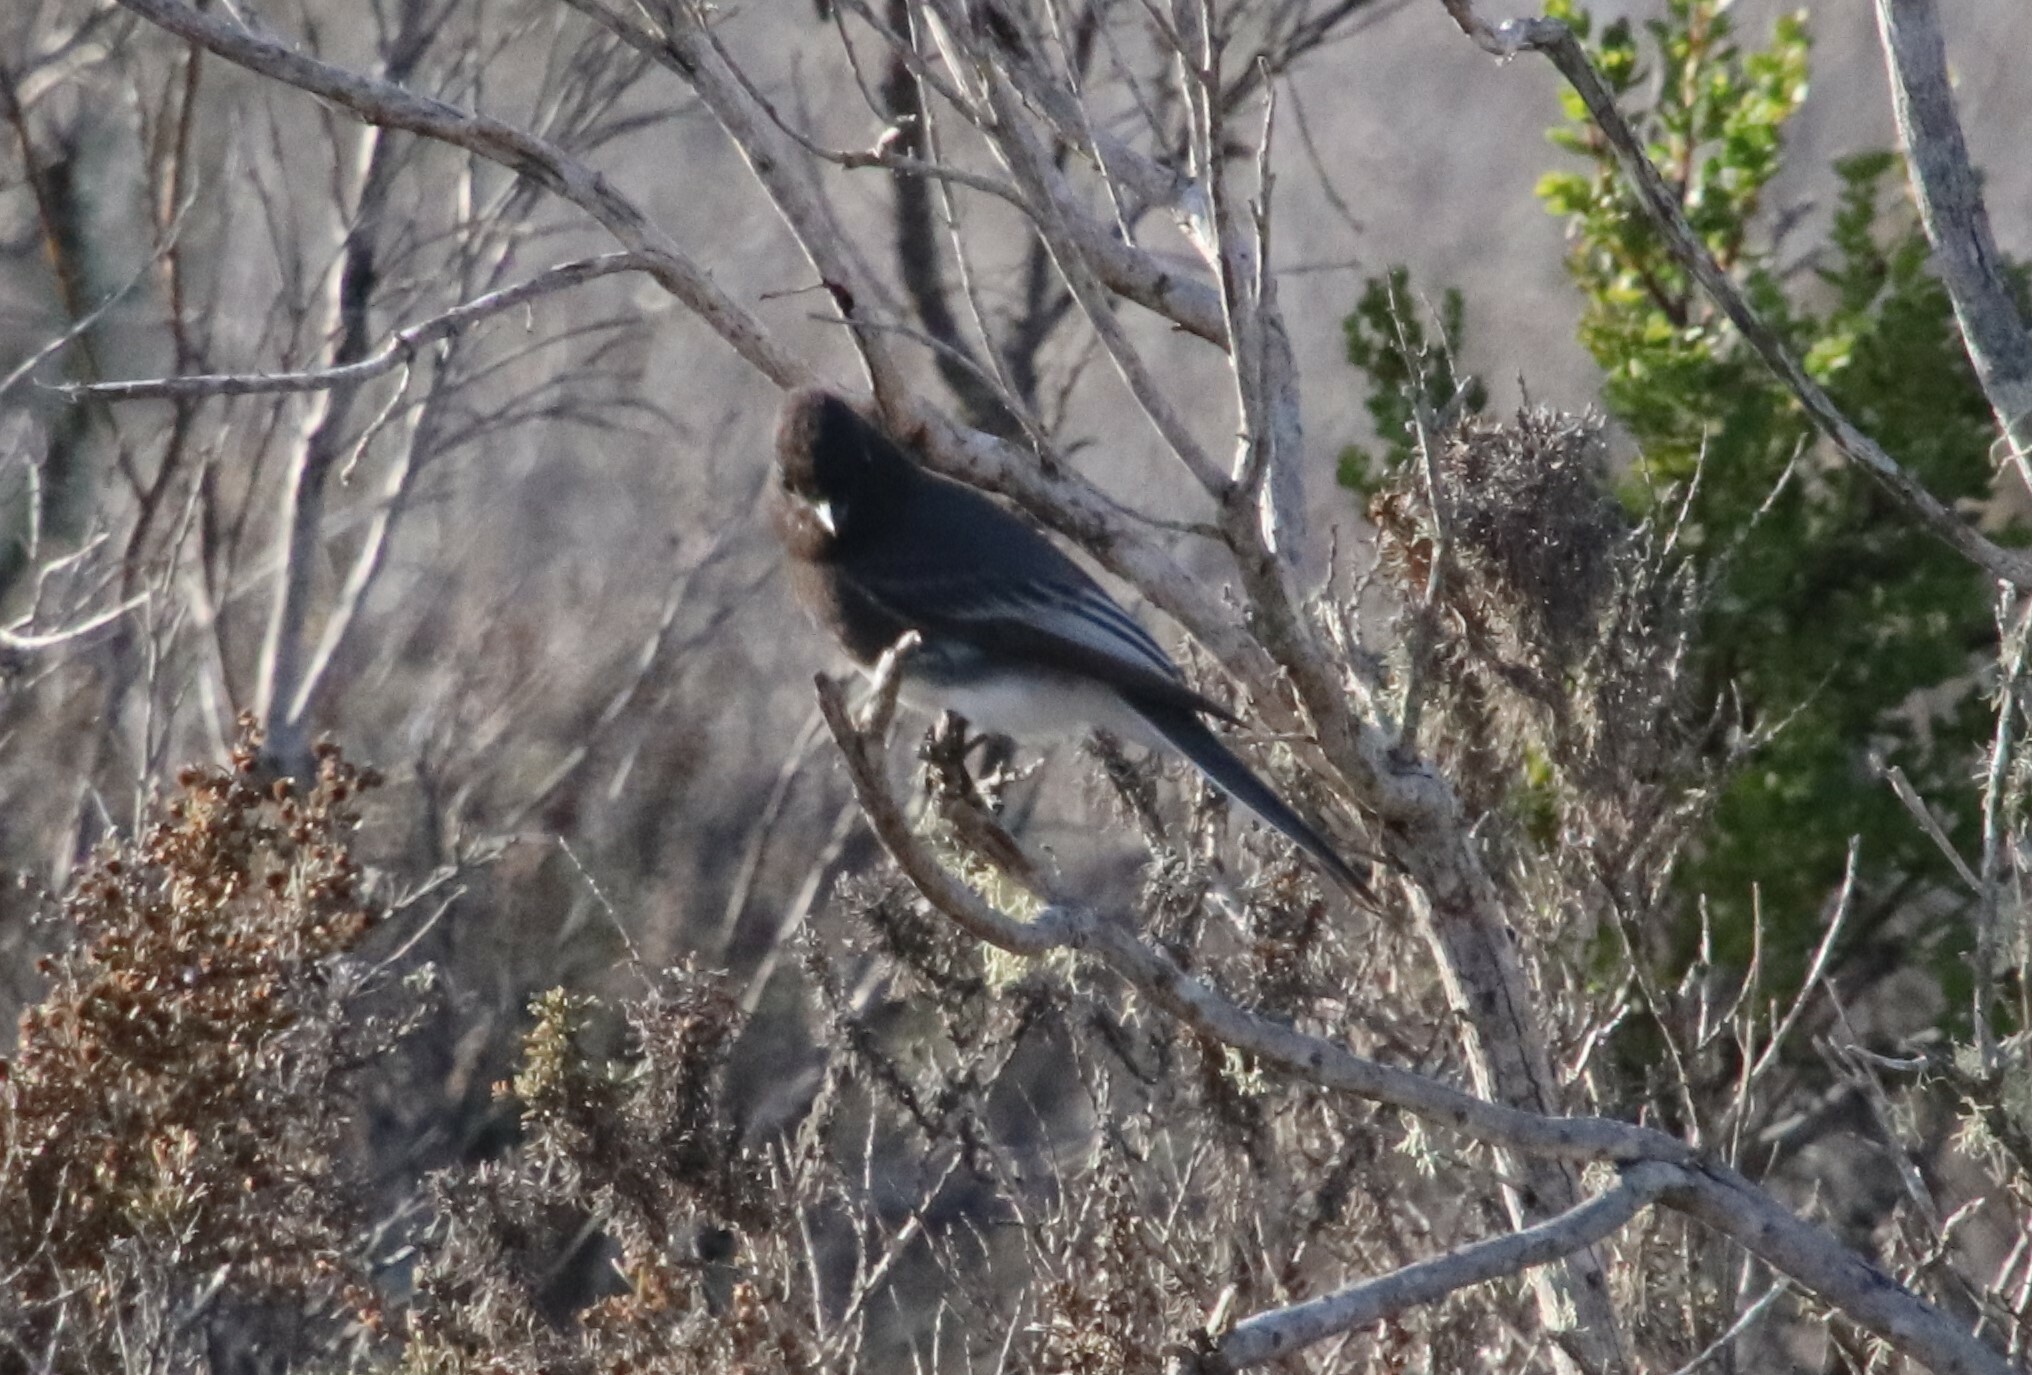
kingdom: Animalia
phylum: Chordata
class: Aves
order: Passeriformes
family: Tyrannidae
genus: Sayornis
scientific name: Sayornis nigricans
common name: Black phoebe
